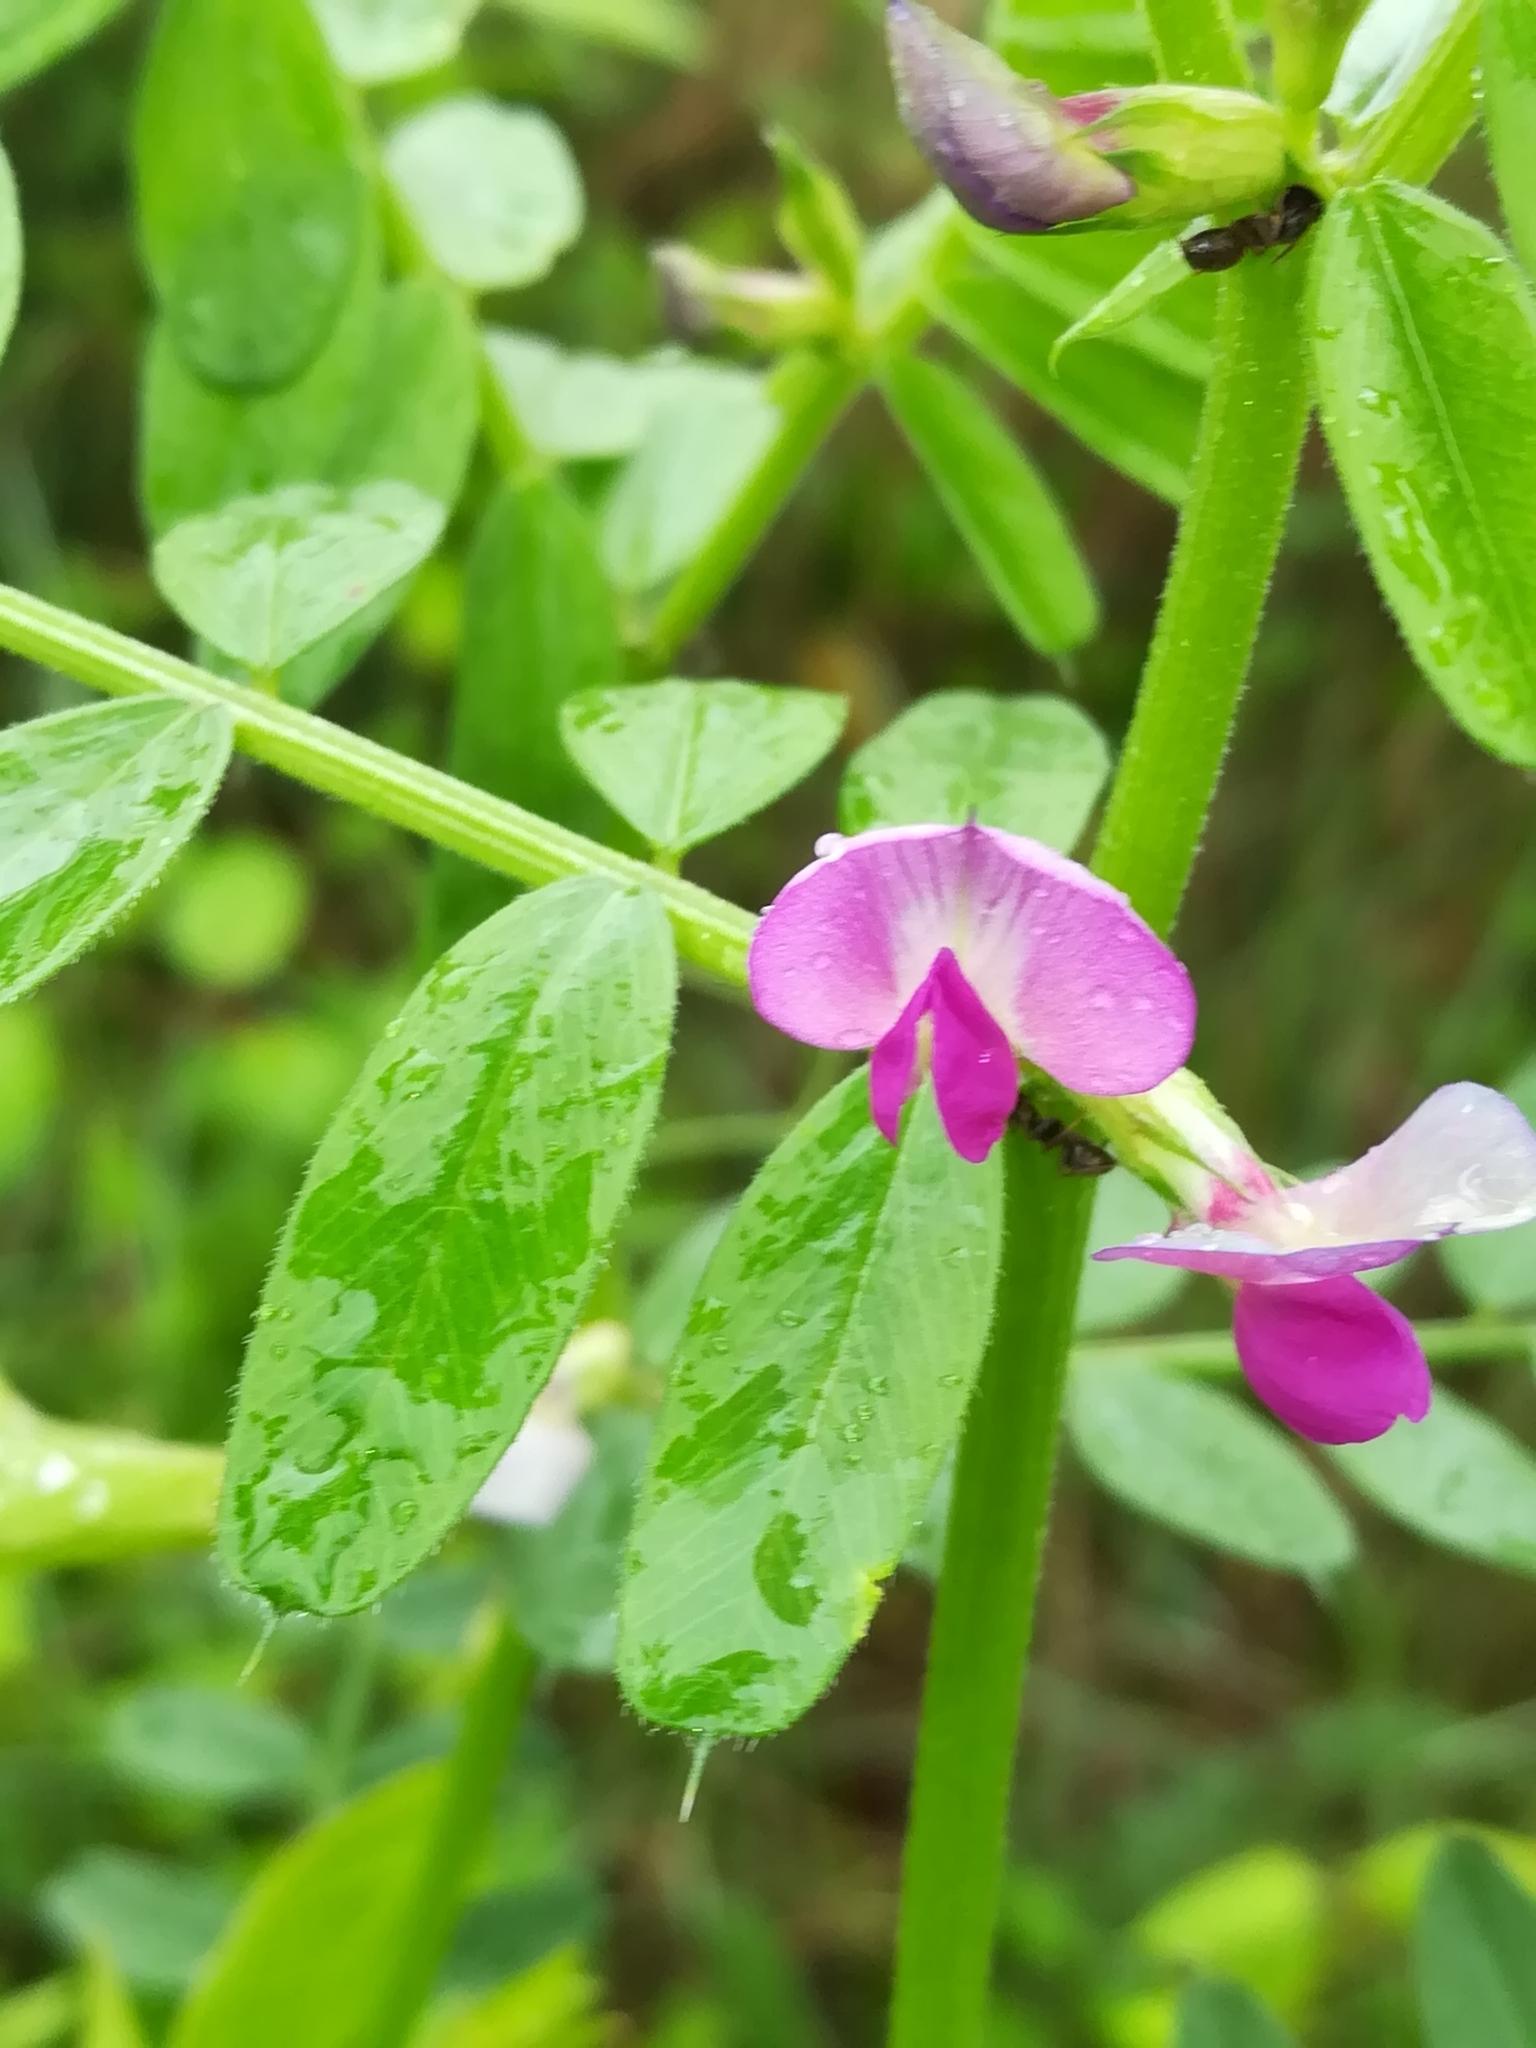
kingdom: Plantae
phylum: Tracheophyta
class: Magnoliopsida
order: Fabales
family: Fabaceae
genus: Vicia
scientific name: Vicia sativa
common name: Garden vetch
